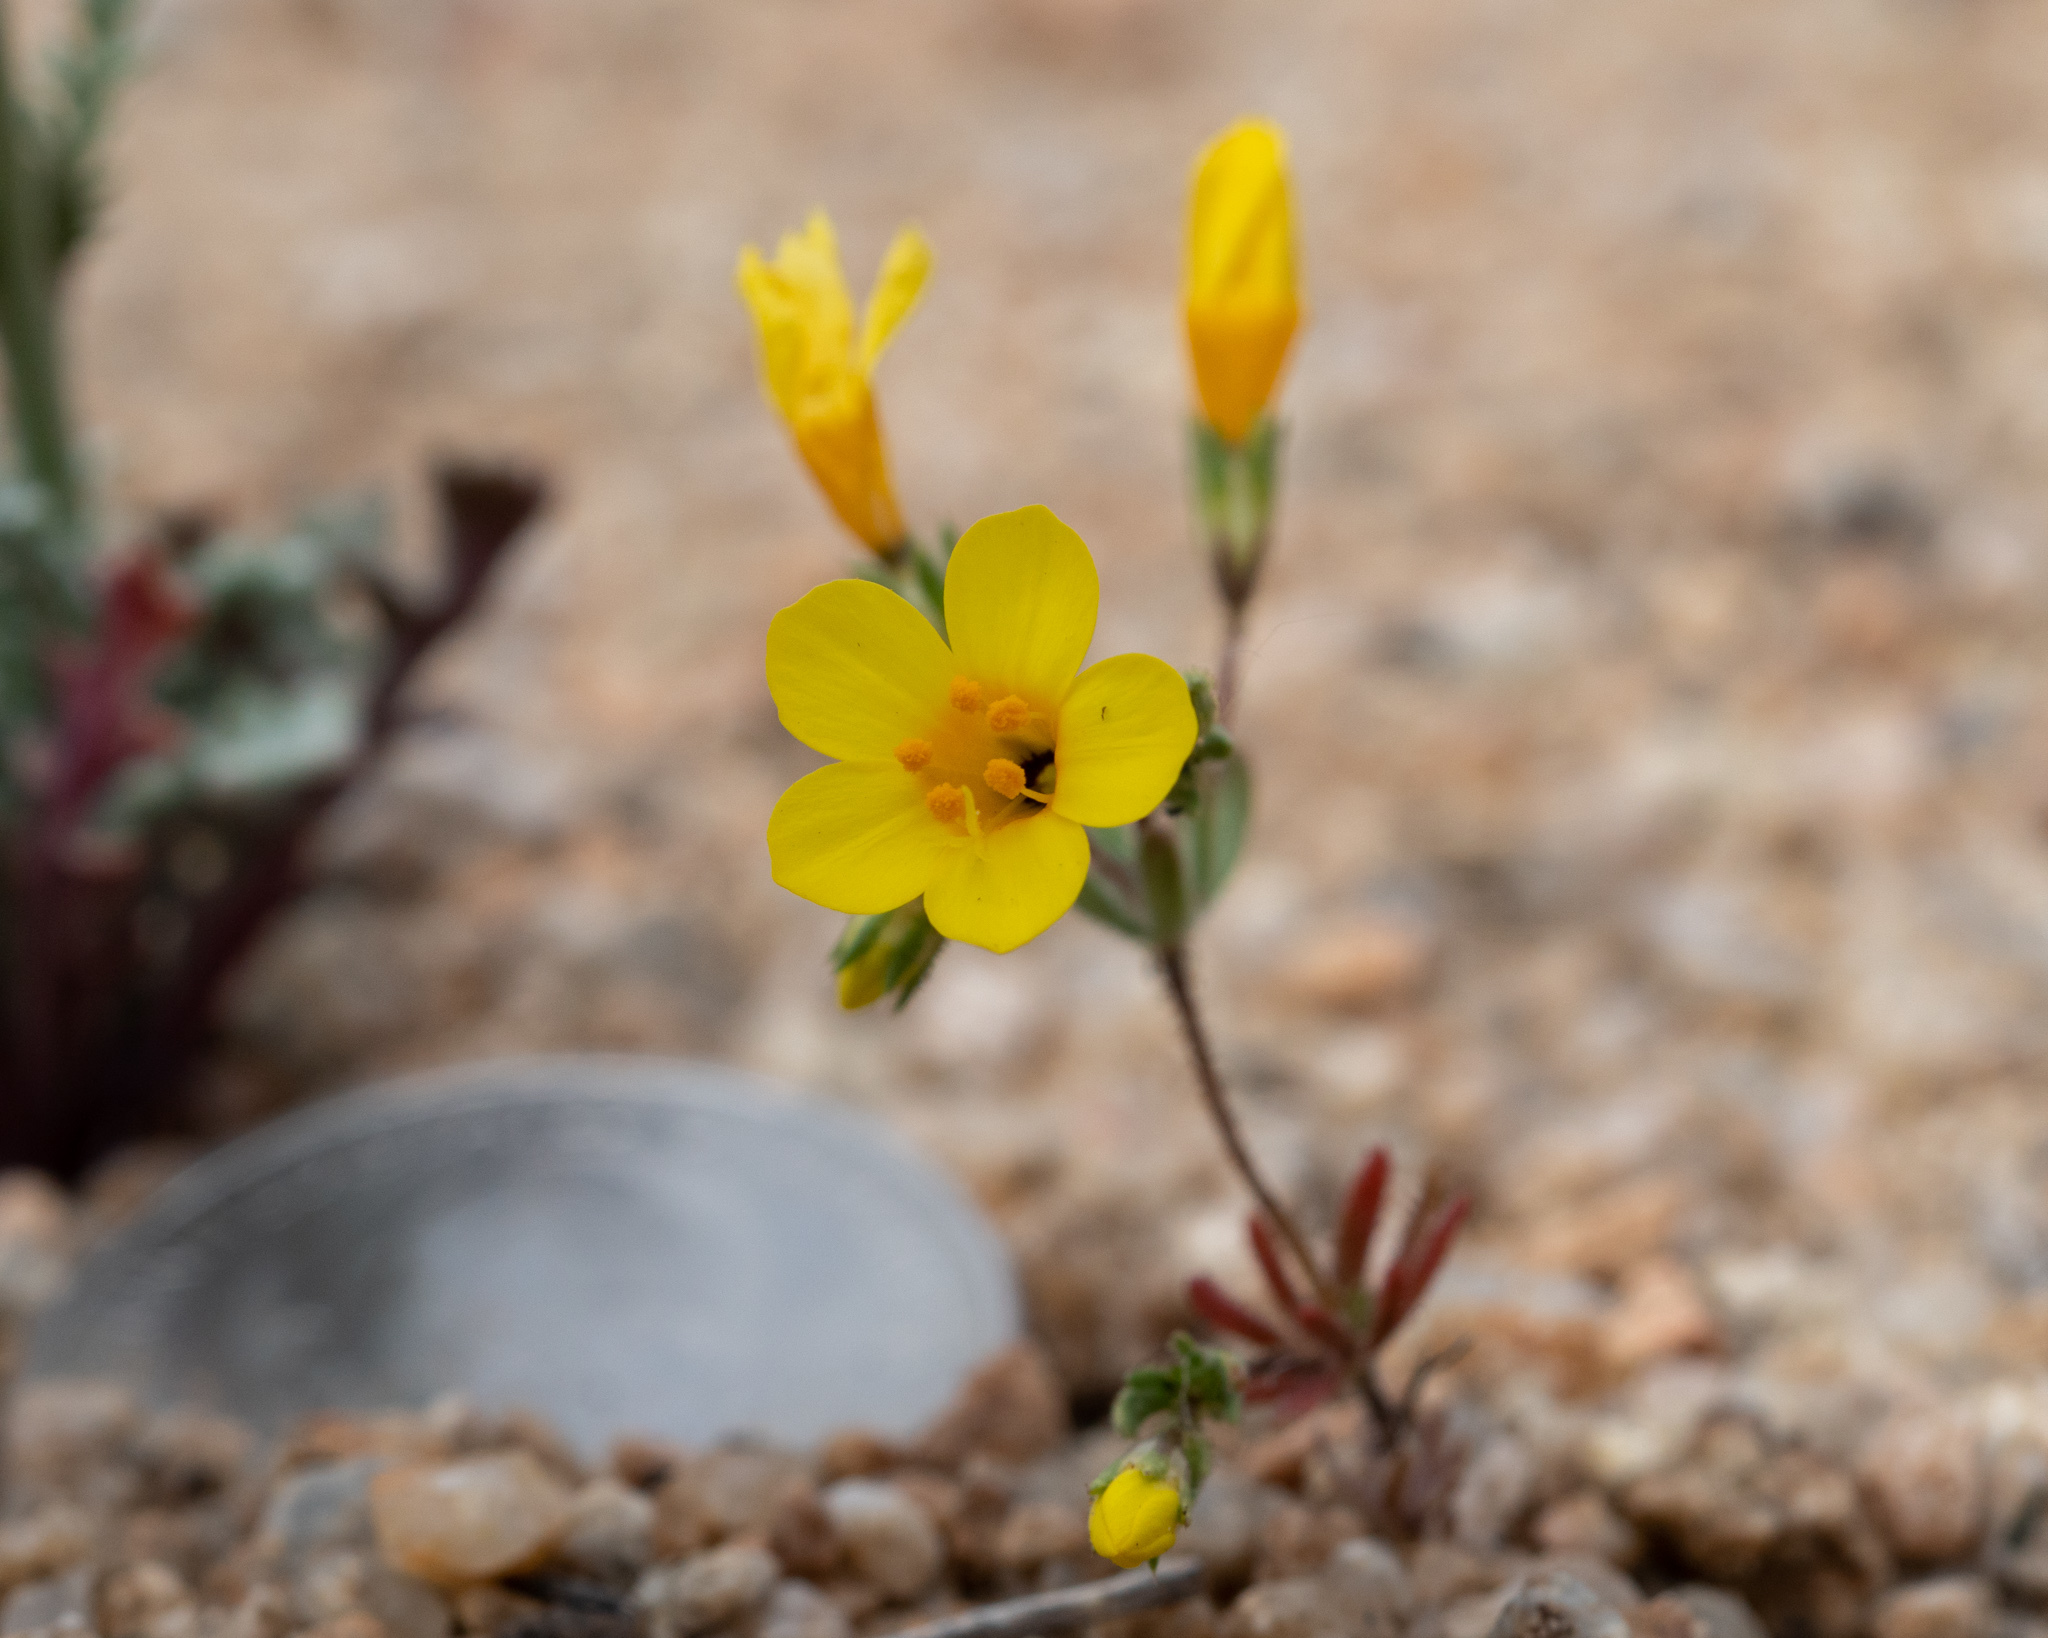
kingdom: Plantae
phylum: Tracheophyta
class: Magnoliopsida
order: Ericales
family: Polemoniaceae
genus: Leptosiphon
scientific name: Leptosiphon chrysanthus
